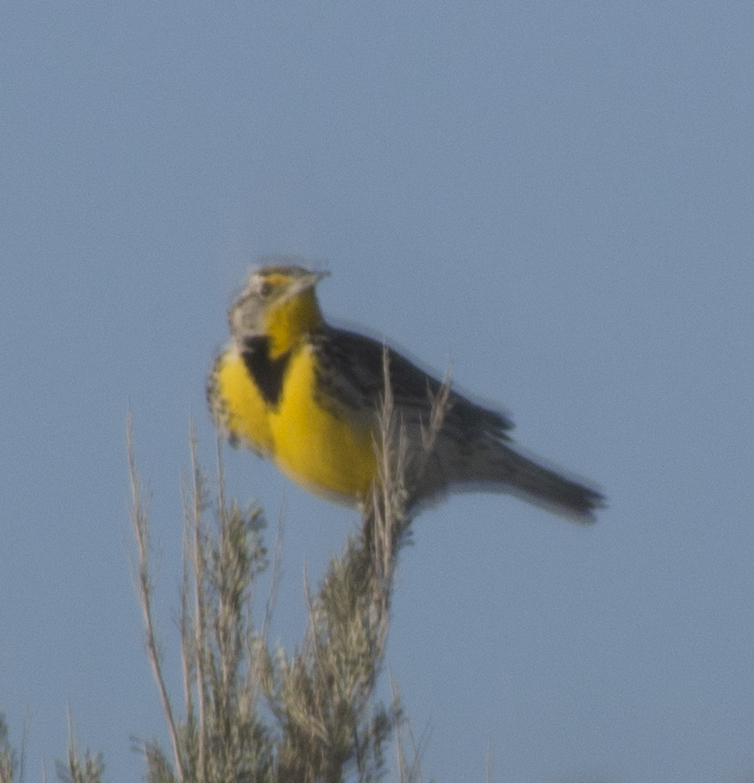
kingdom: Animalia
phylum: Chordata
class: Aves
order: Passeriformes
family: Icteridae
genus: Sturnella
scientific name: Sturnella neglecta
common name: Western meadowlark
